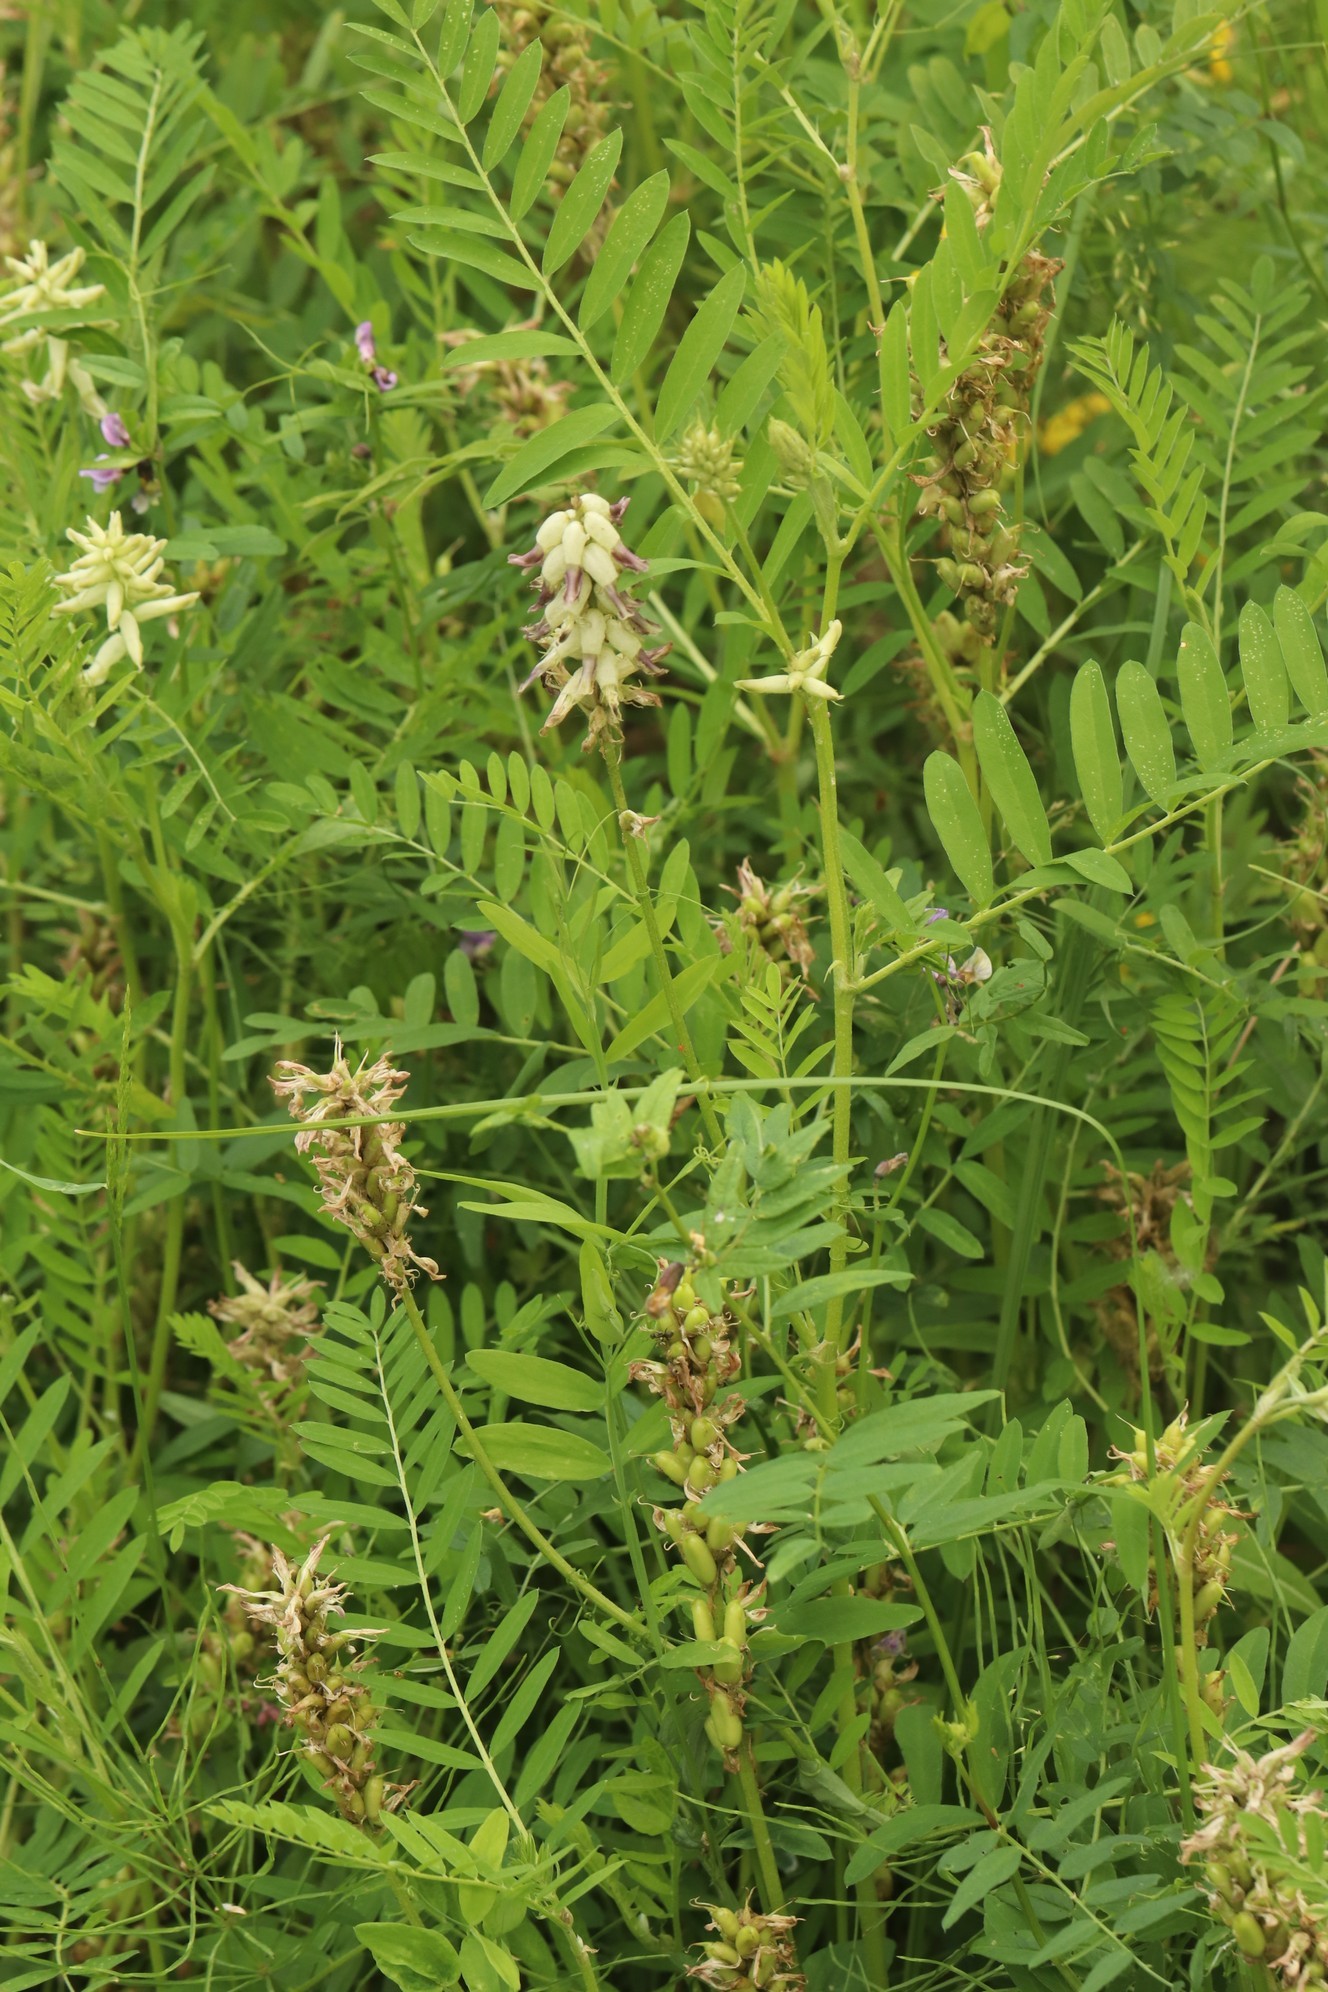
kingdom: Plantae
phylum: Tracheophyta
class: Magnoliopsida
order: Fabales
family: Fabaceae
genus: Astragalus
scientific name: Astragalus uliginosus
